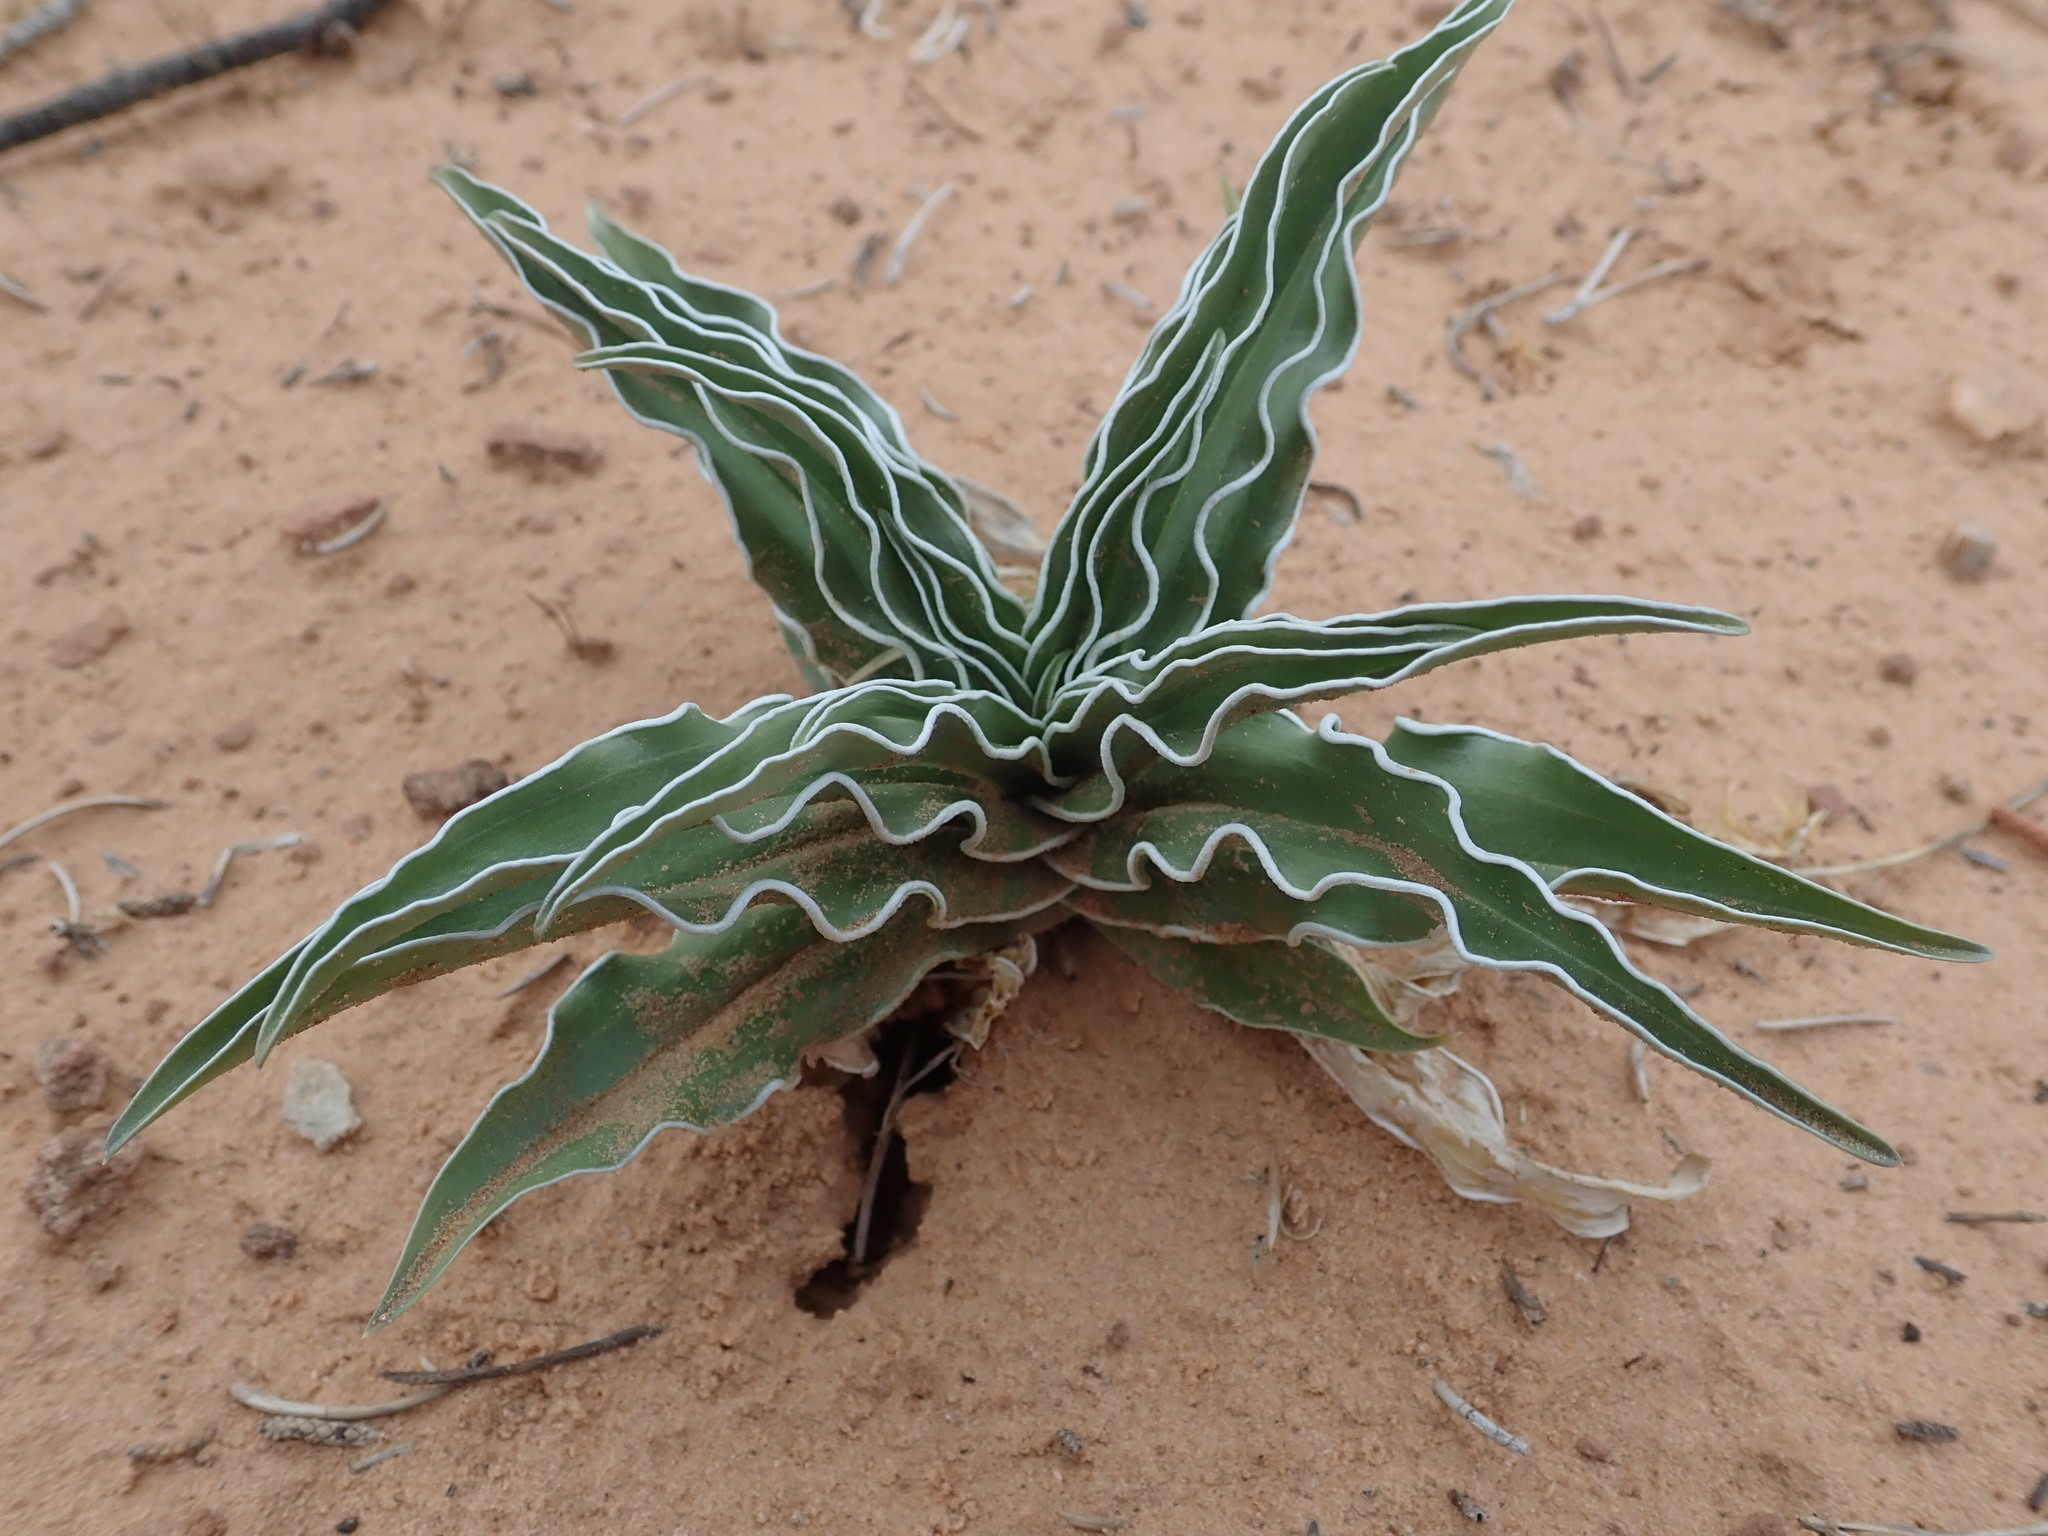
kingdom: Plantae
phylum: Tracheophyta
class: Magnoliopsida
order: Gentianales
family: Gentianaceae
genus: Frasera
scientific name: Frasera paniculata
